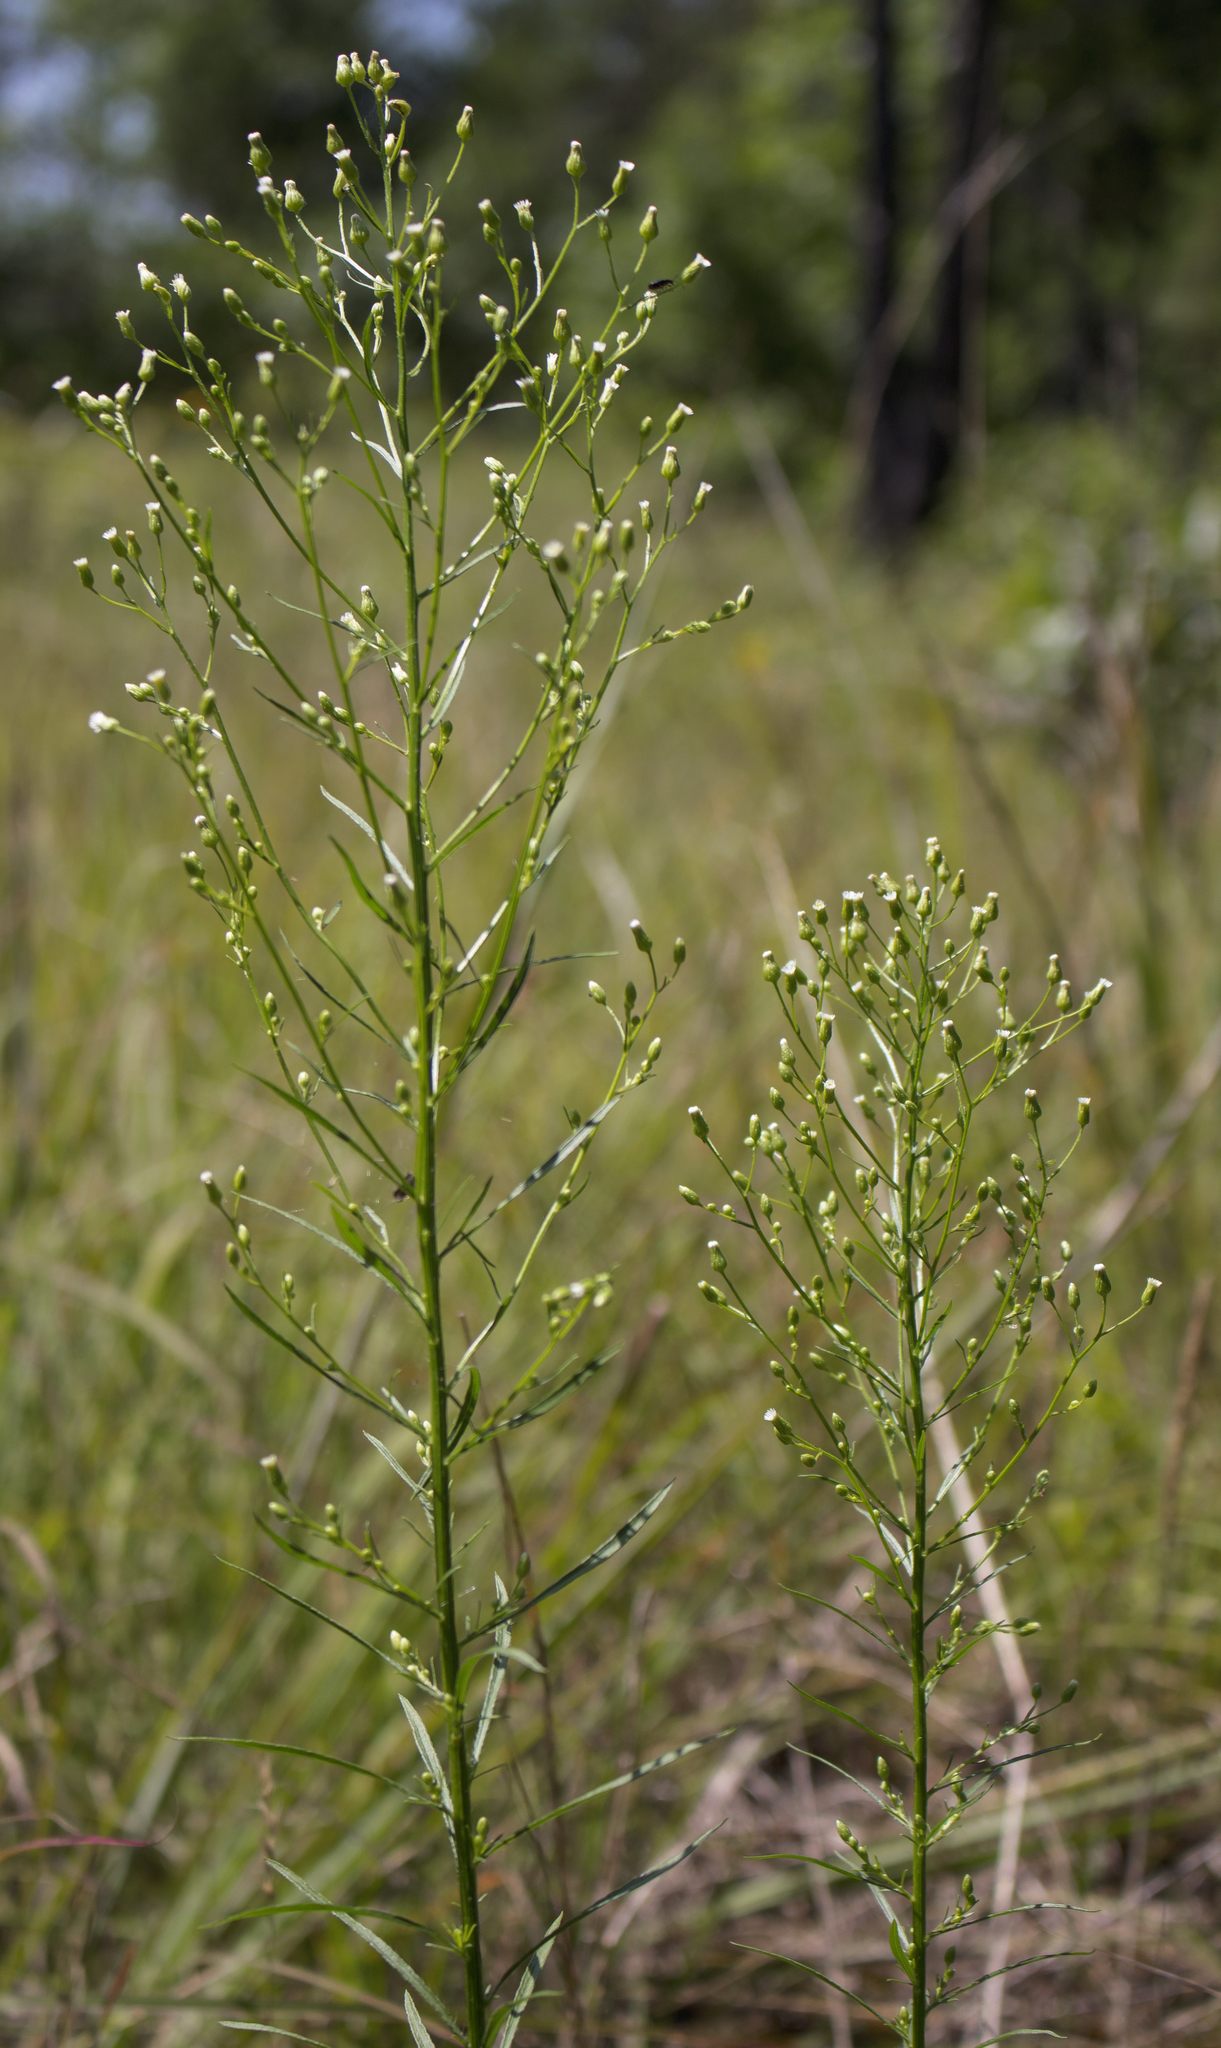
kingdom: Plantae
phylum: Tracheophyta
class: Magnoliopsida
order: Asterales
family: Asteraceae
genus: Erigeron
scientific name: Erigeron canadensis
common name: Canadian fleabane
